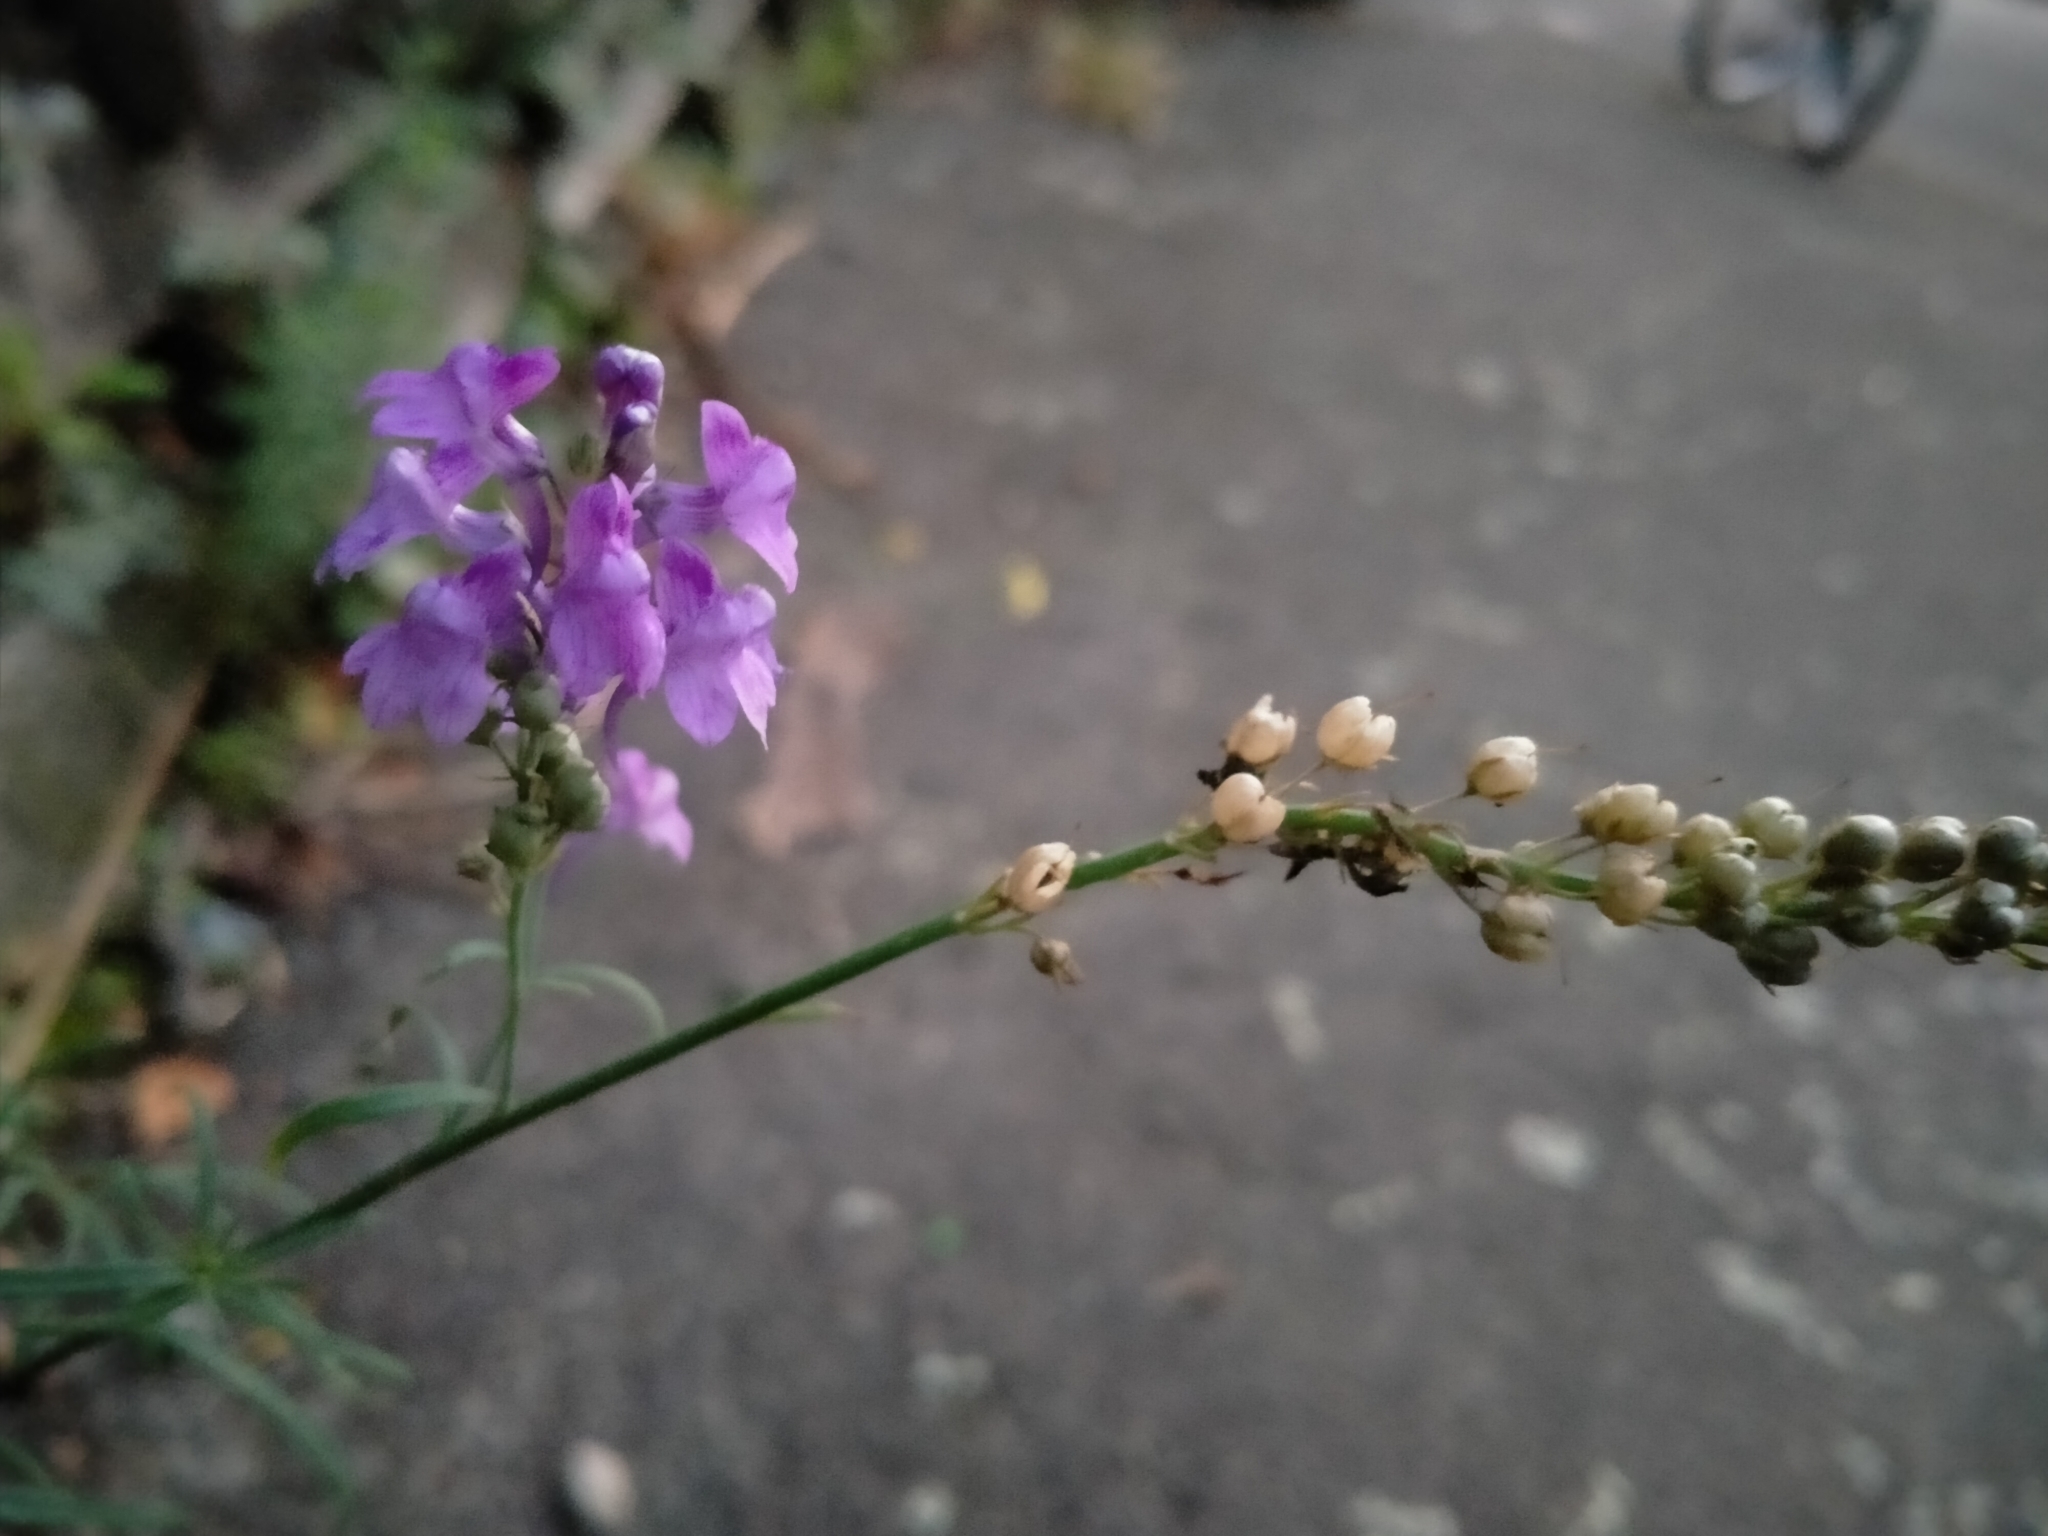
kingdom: Plantae
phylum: Tracheophyta
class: Magnoliopsida
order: Lamiales
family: Plantaginaceae
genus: Linaria
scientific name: Linaria purpurea
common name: Purple toadflax
